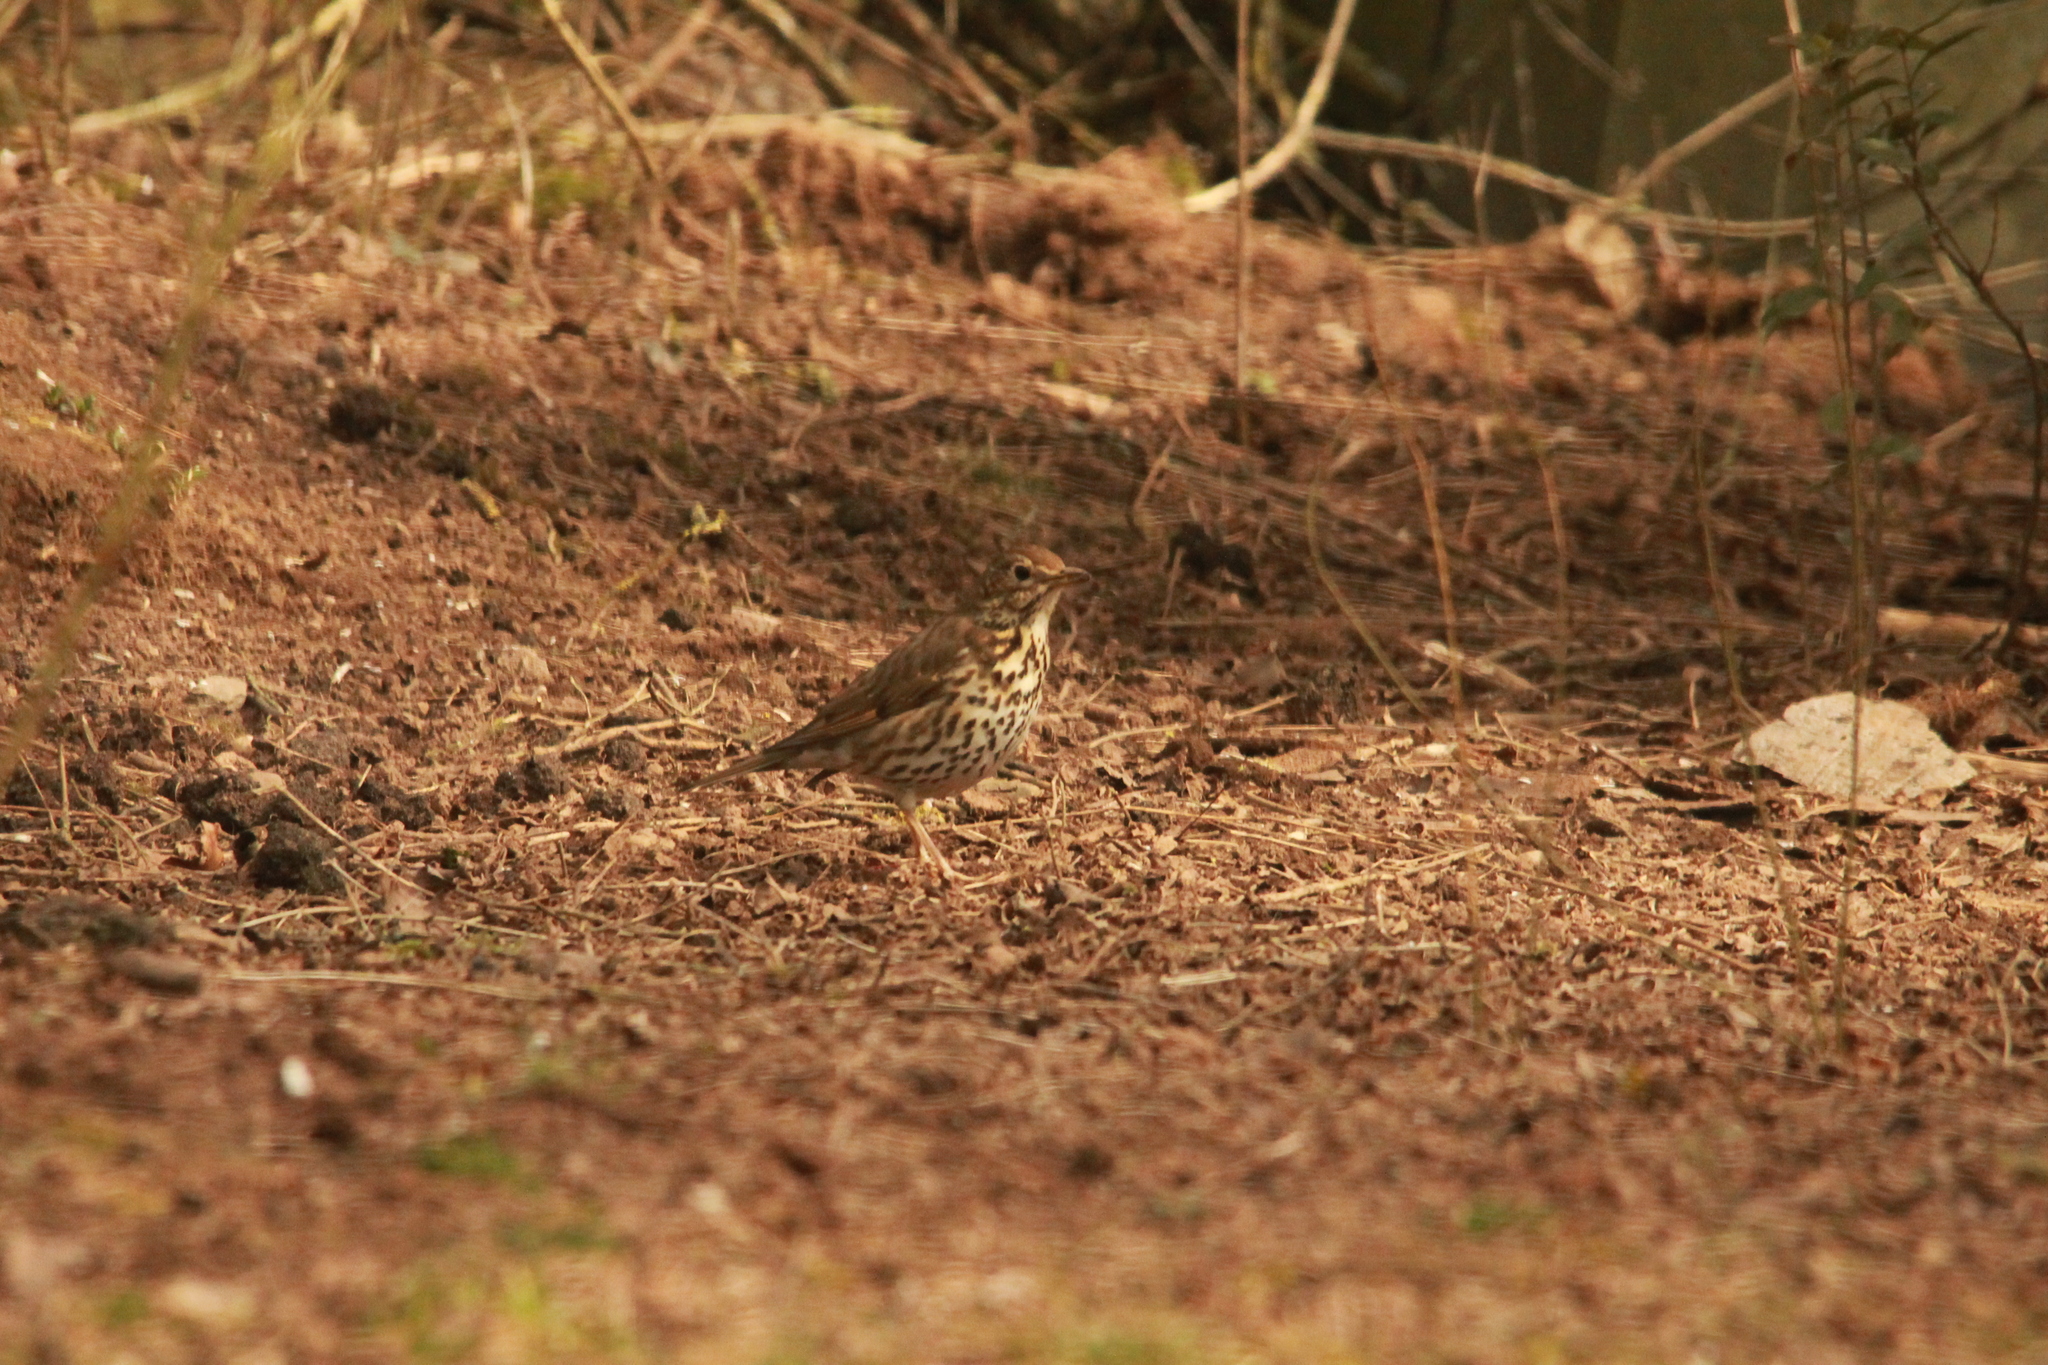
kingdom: Animalia
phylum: Chordata
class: Aves
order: Passeriformes
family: Turdidae
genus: Turdus
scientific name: Turdus philomelos
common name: Song thrush
